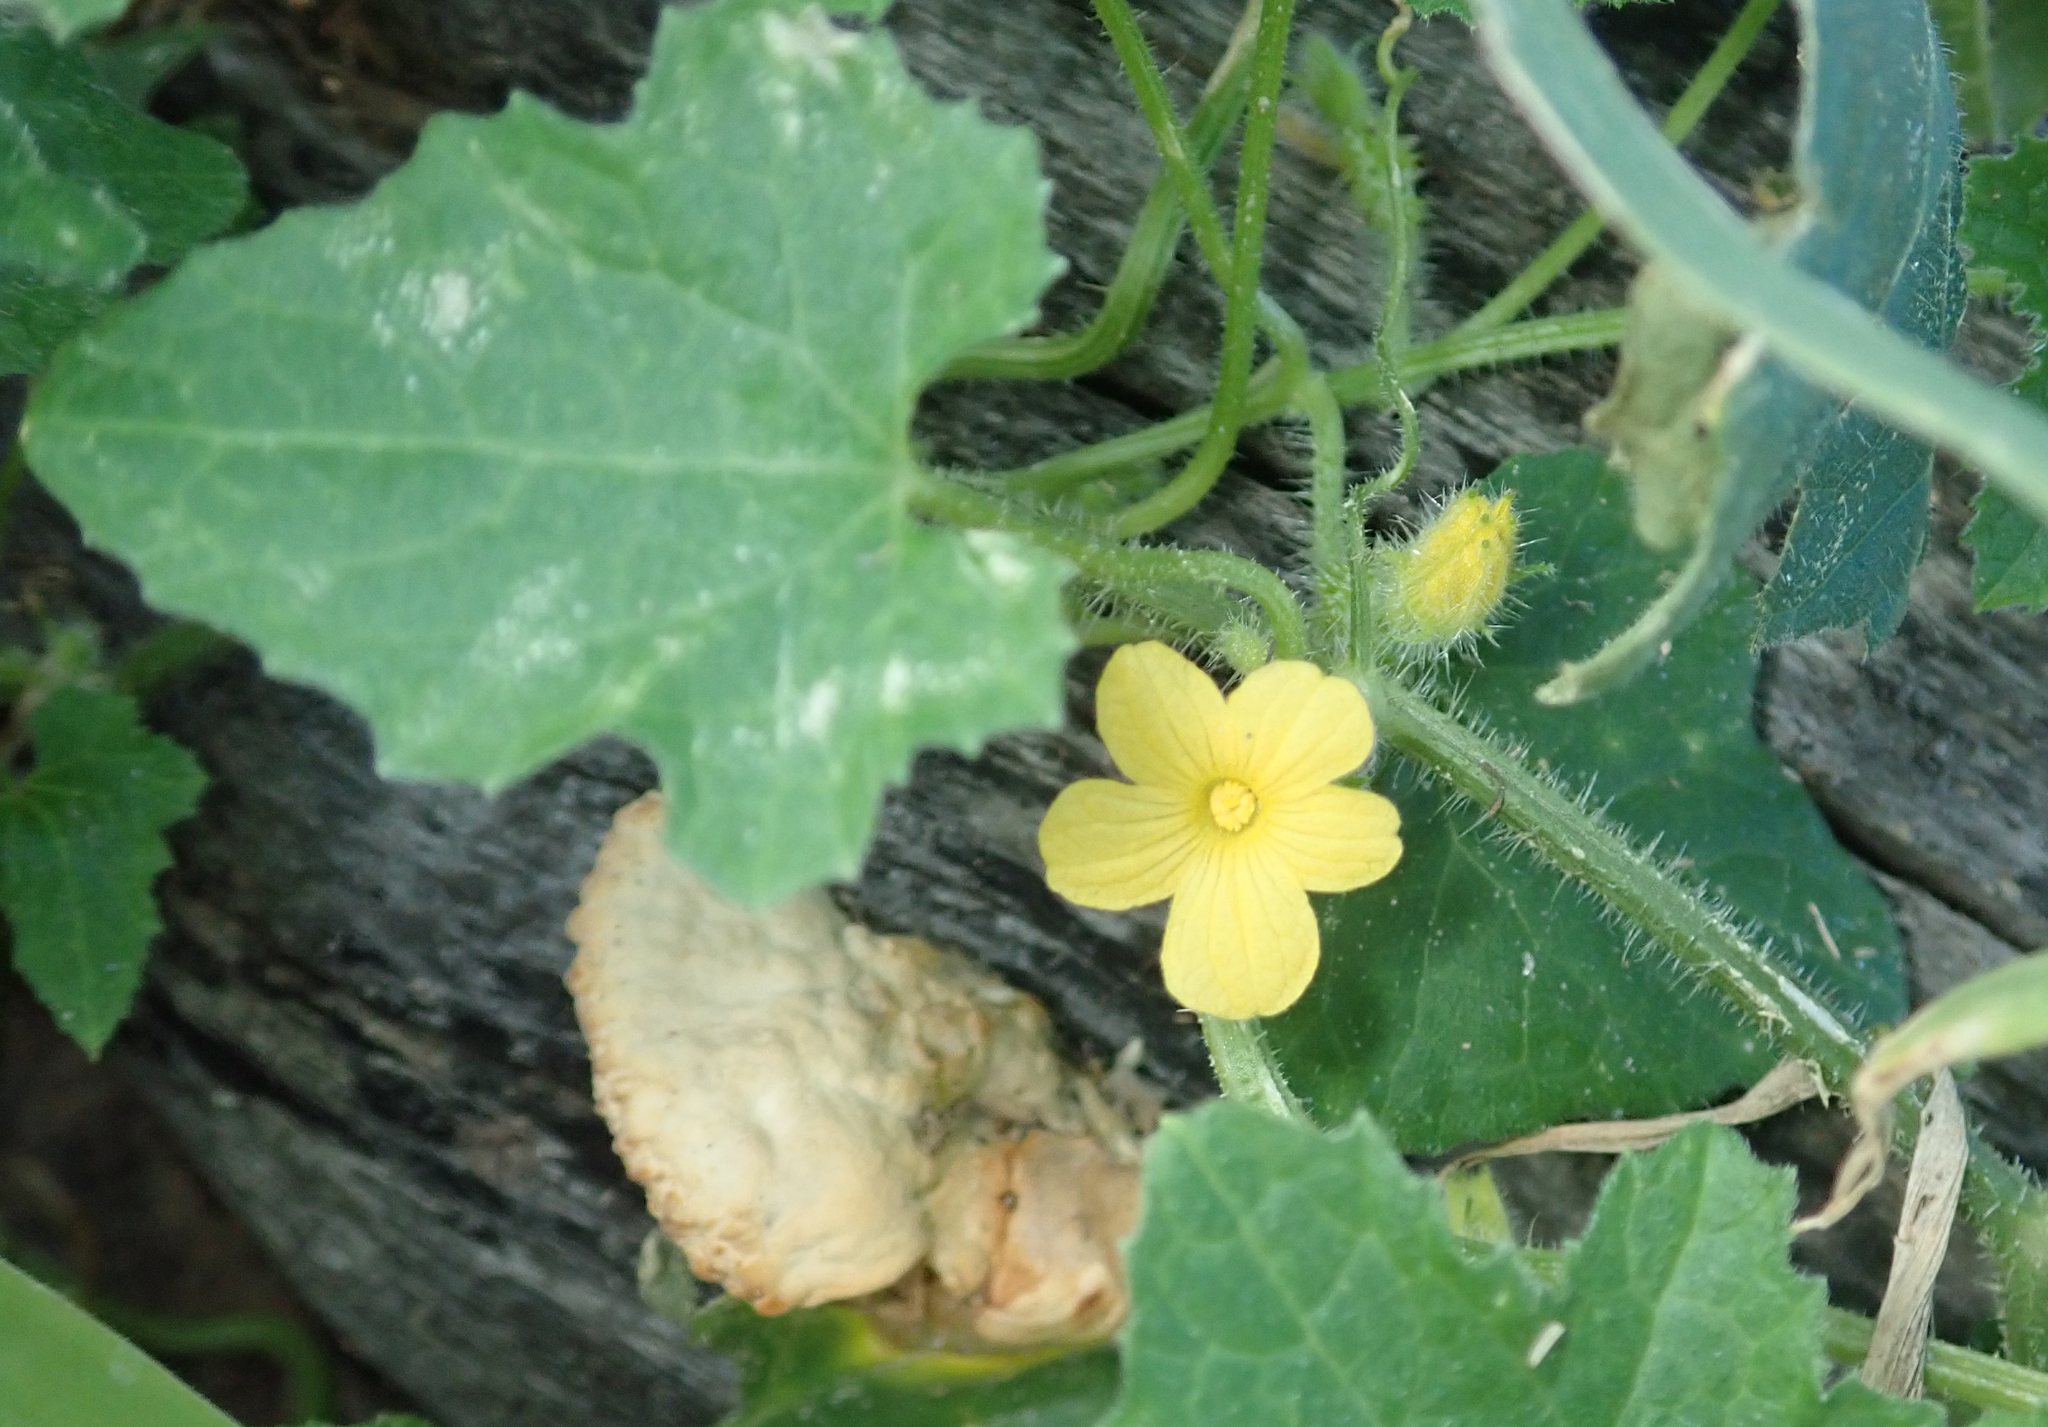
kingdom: Plantae
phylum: Tracheophyta
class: Magnoliopsida
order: Cucurbitales
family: Cucurbitaceae
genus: Cucumis
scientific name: Cucumis metuliferus
